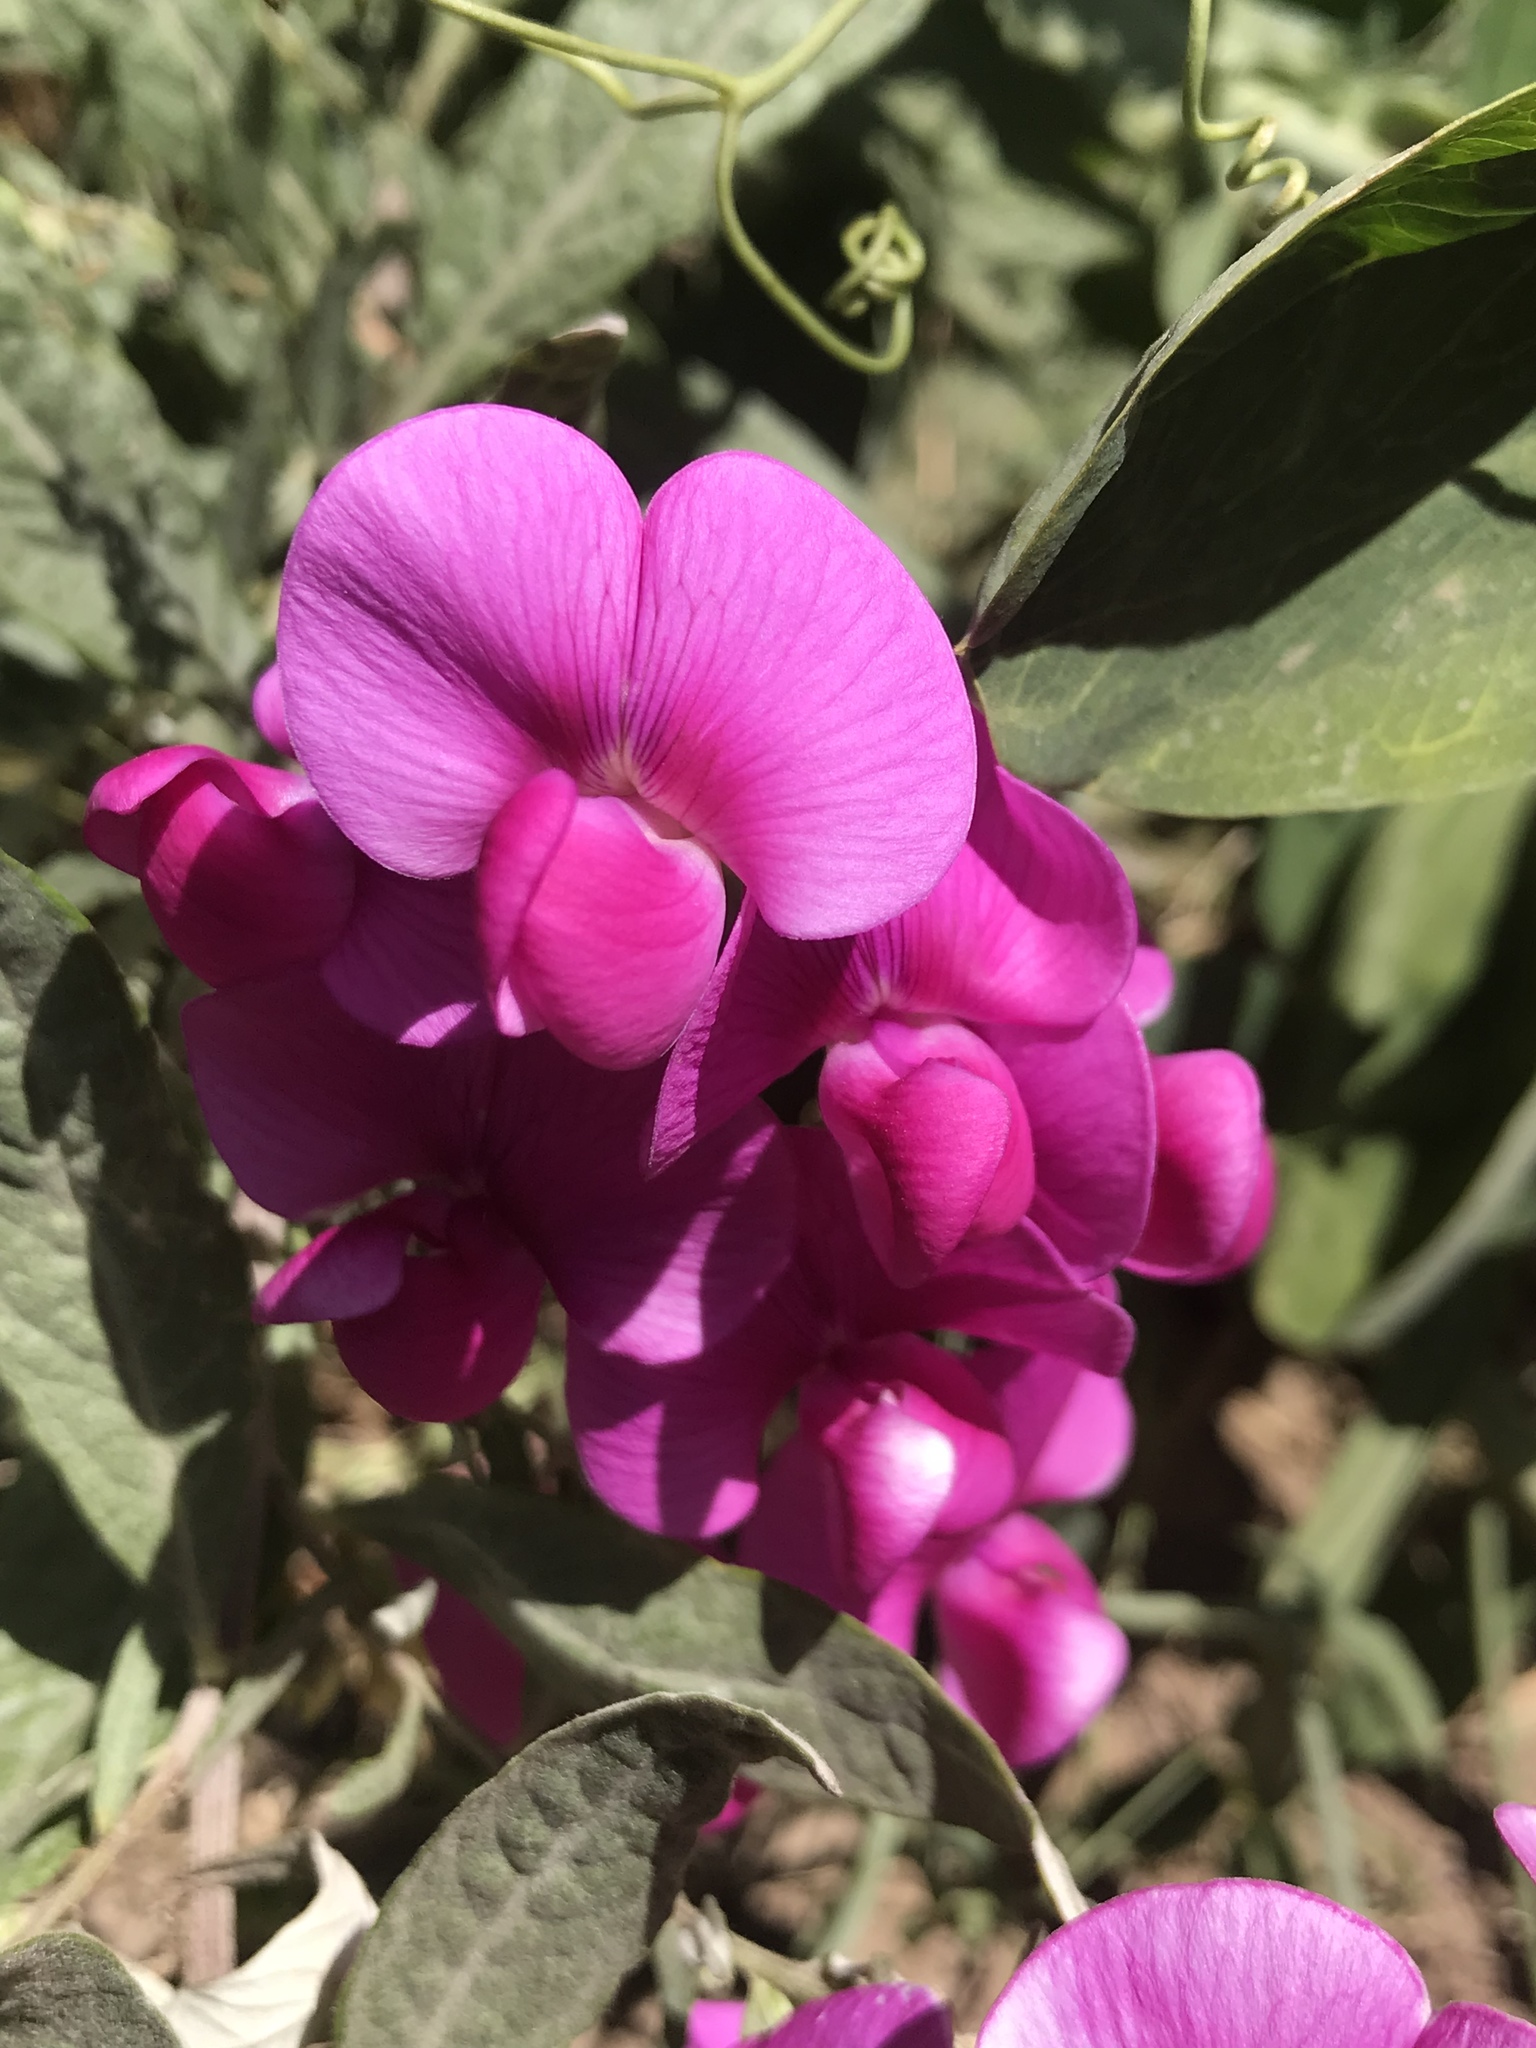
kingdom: Plantae
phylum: Tracheophyta
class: Magnoliopsida
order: Fabales
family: Fabaceae
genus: Lathyrus
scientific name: Lathyrus latifolius
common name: Perennial pea
